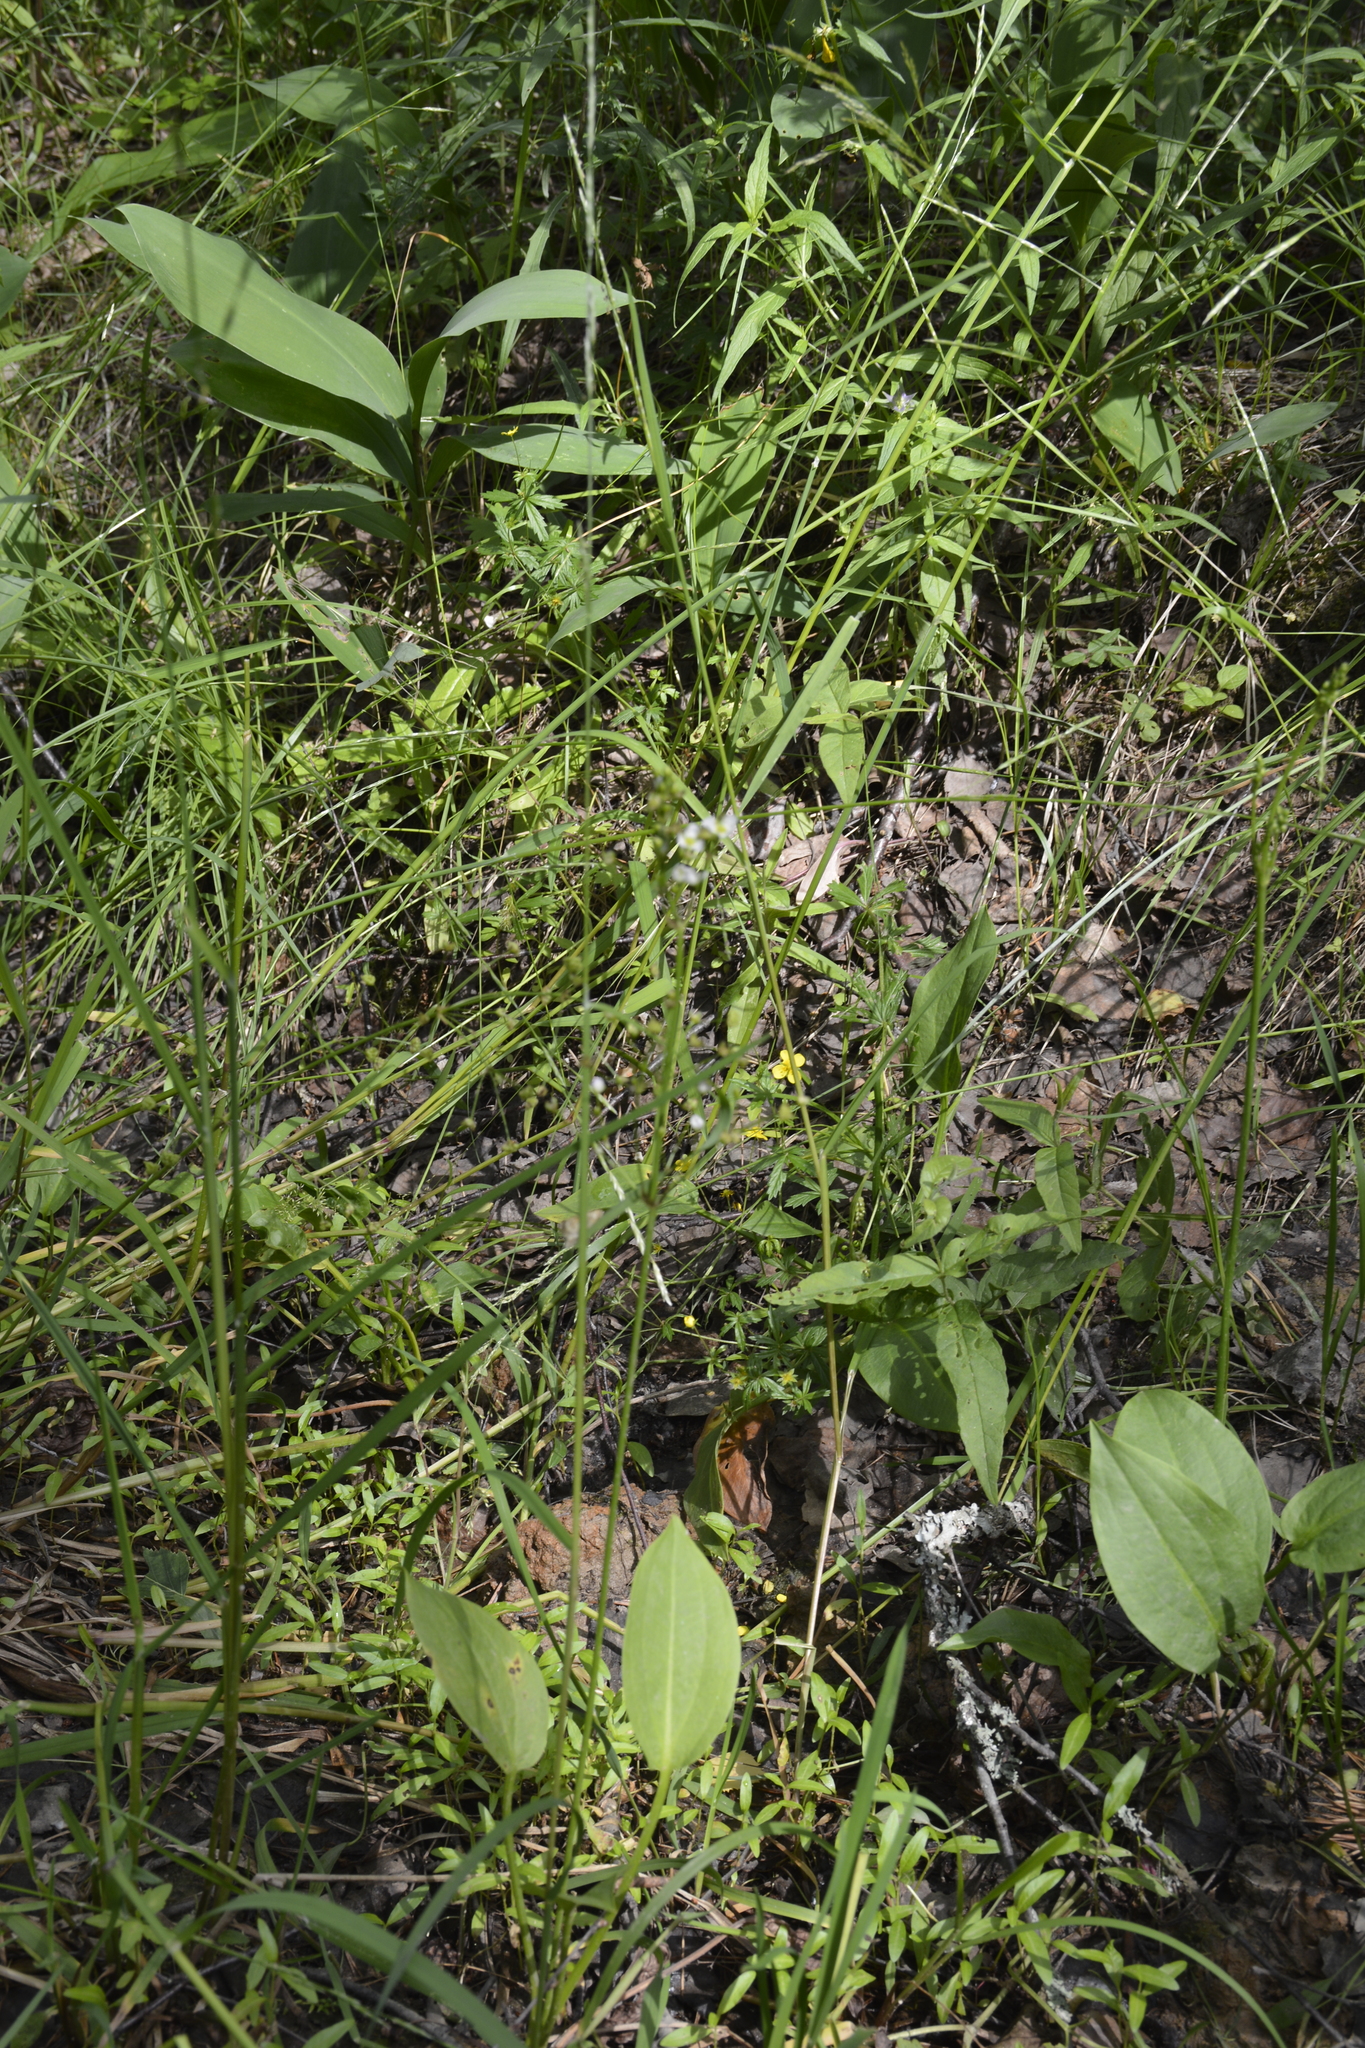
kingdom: Plantae
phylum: Tracheophyta
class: Liliopsida
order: Alismatales
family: Alismataceae
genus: Alisma
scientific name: Alisma plantago-aquatica
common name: Water-plantain
